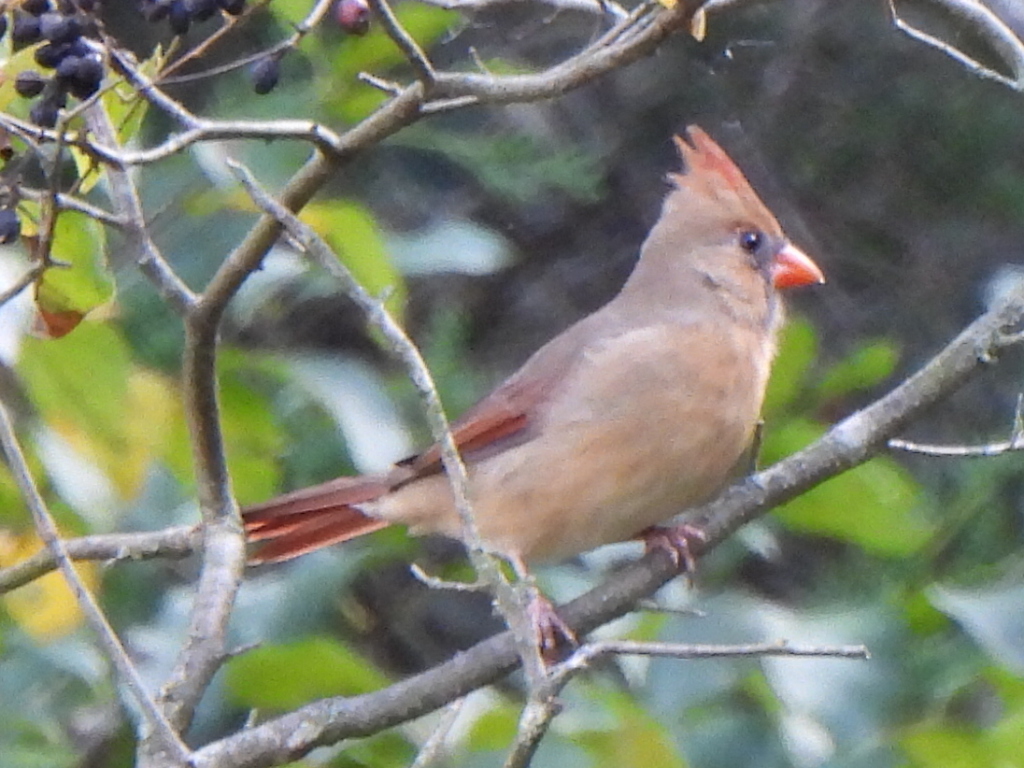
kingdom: Animalia
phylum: Chordata
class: Aves
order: Passeriformes
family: Cardinalidae
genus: Cardinalis
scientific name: Cardinalis cardinalis
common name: Northern cardinal
